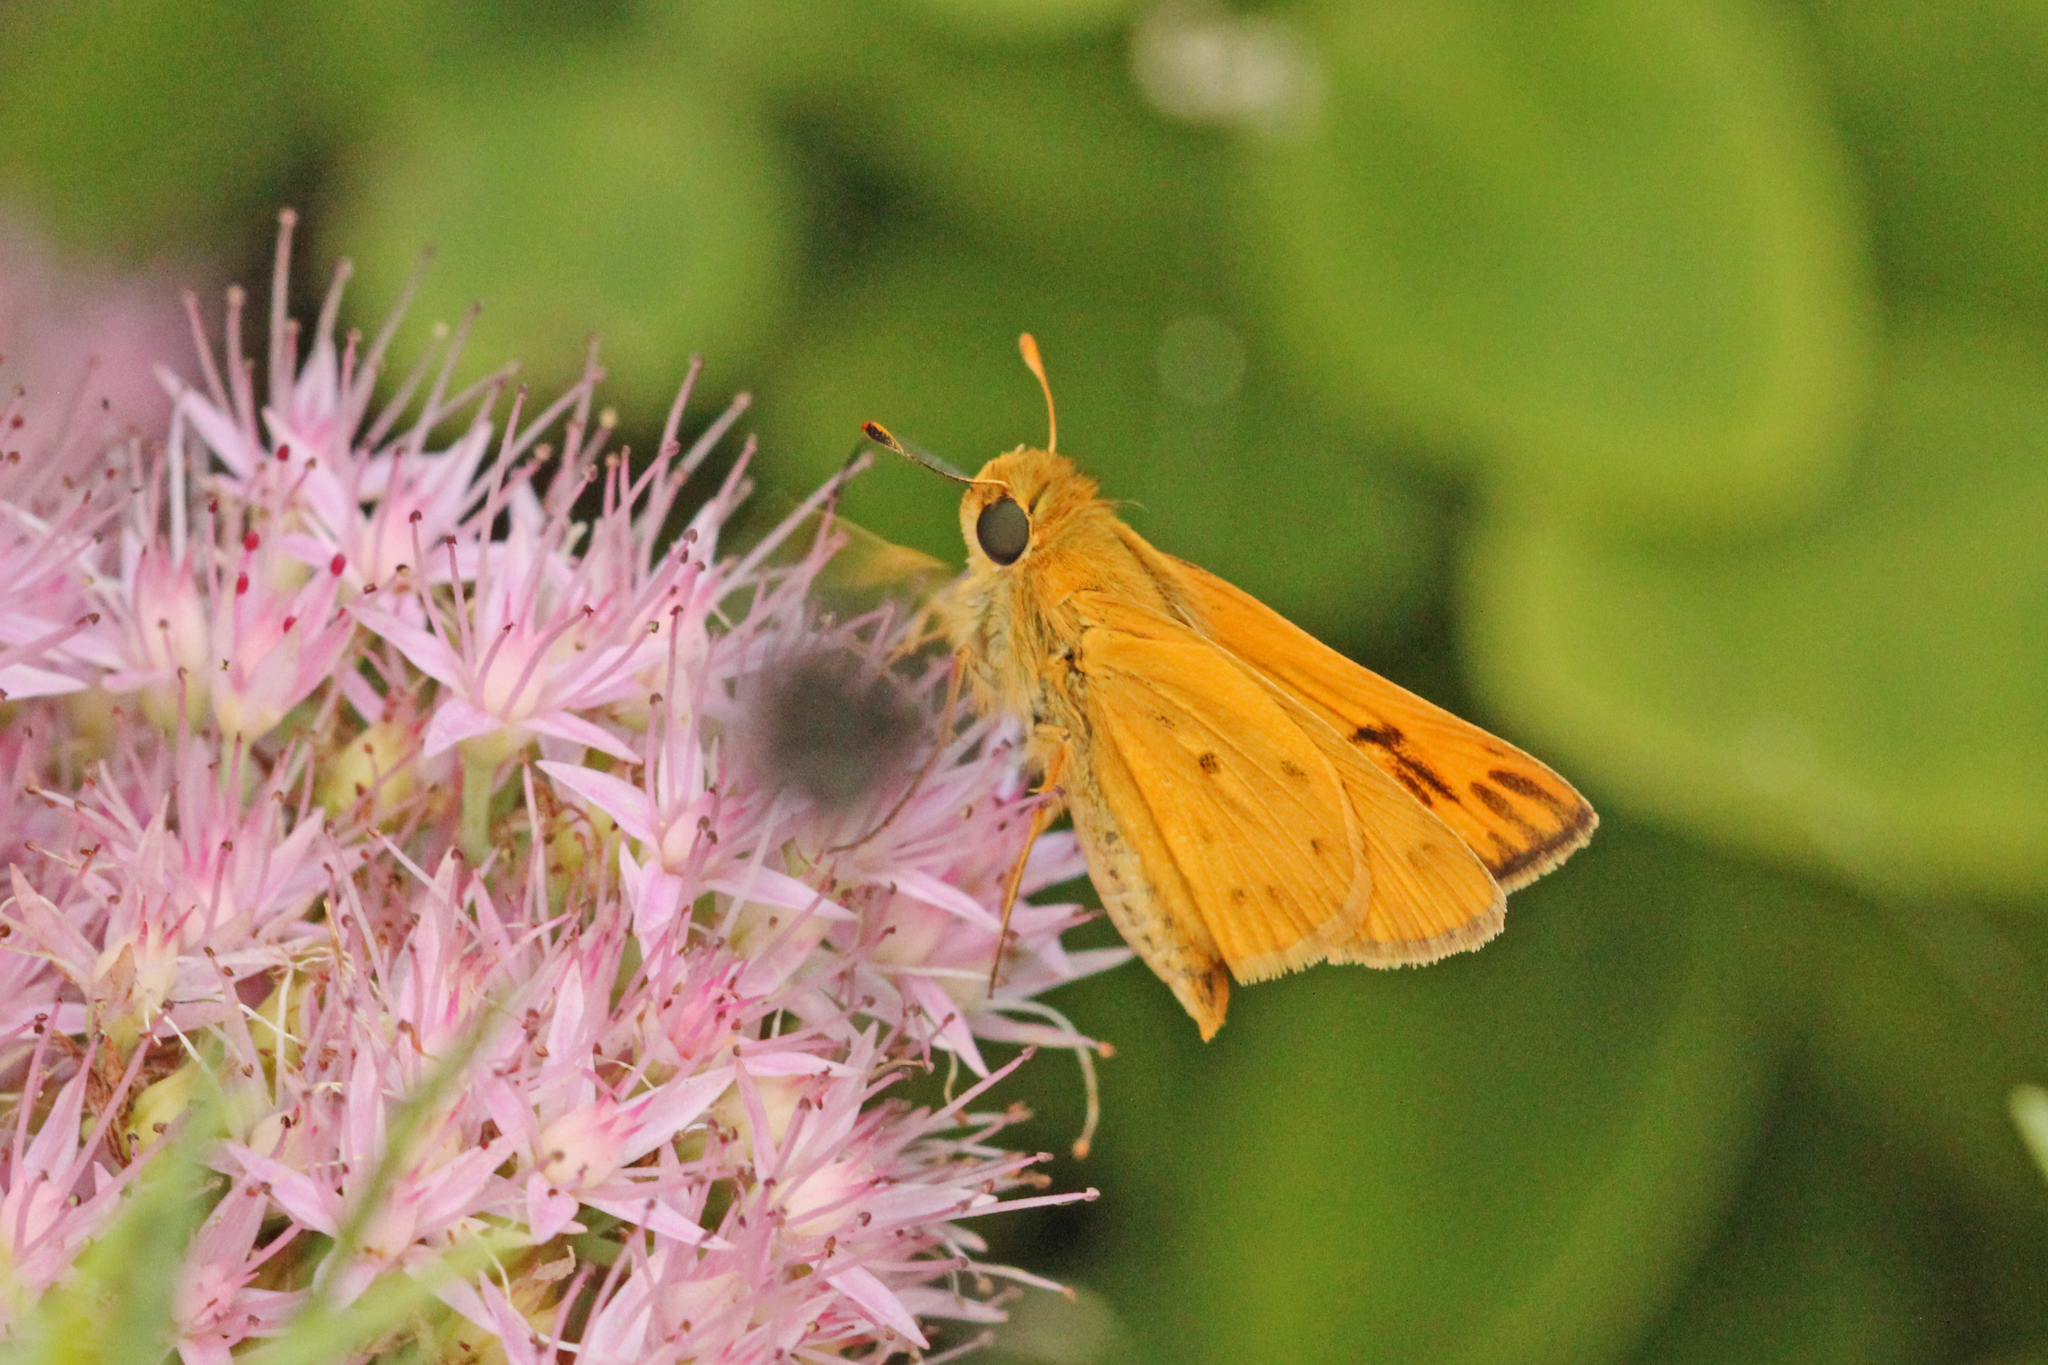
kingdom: Animalia
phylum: Arthropoda
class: Insecta
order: Lepidoptera
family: Hesperiidae
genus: Hylephila
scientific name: Hylephila phyleus
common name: Fiery skipper
